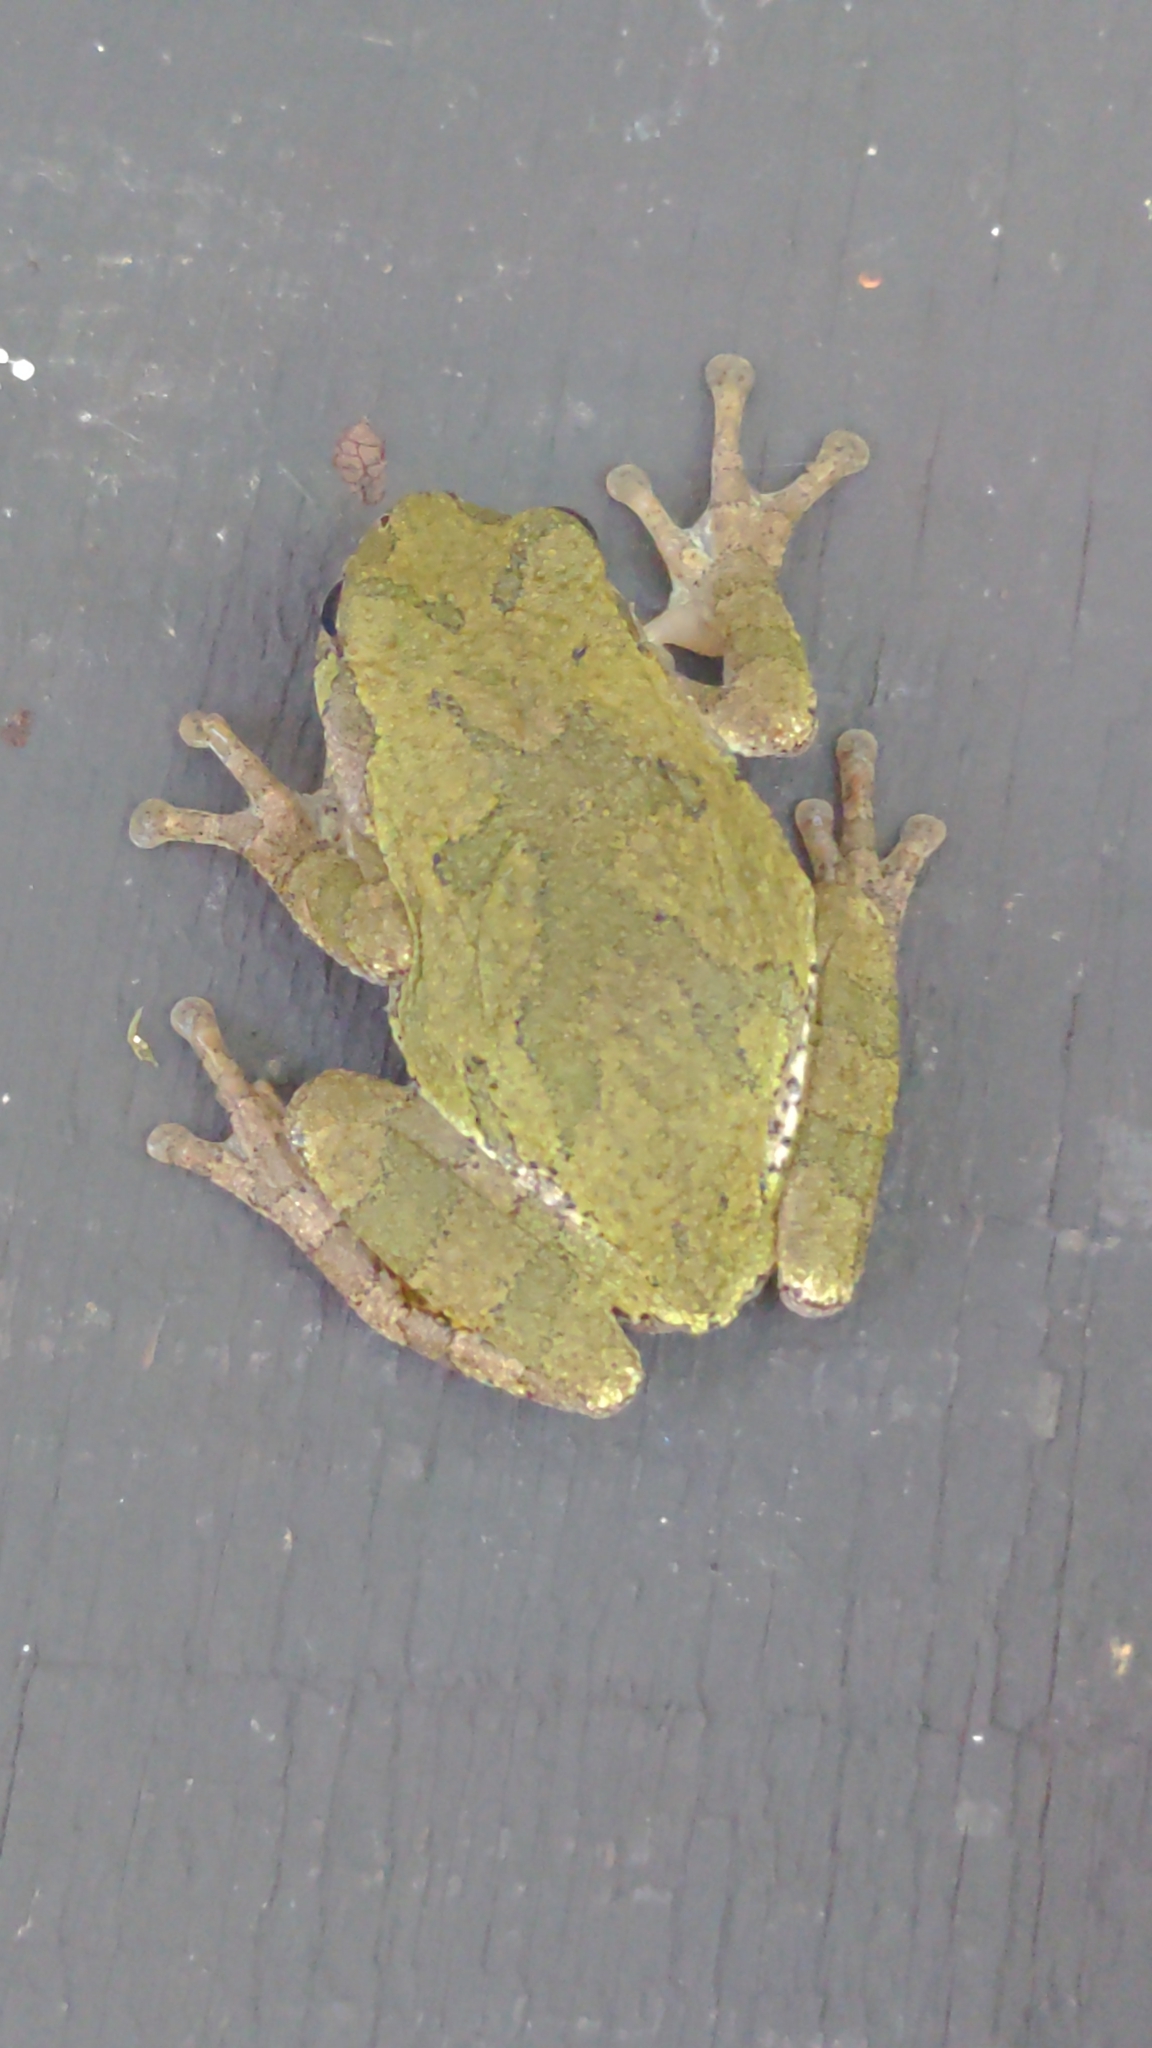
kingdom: Animalia
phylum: Chordata
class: Amphibia
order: Anura
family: Hylidae
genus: Hyla
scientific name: Hyla
